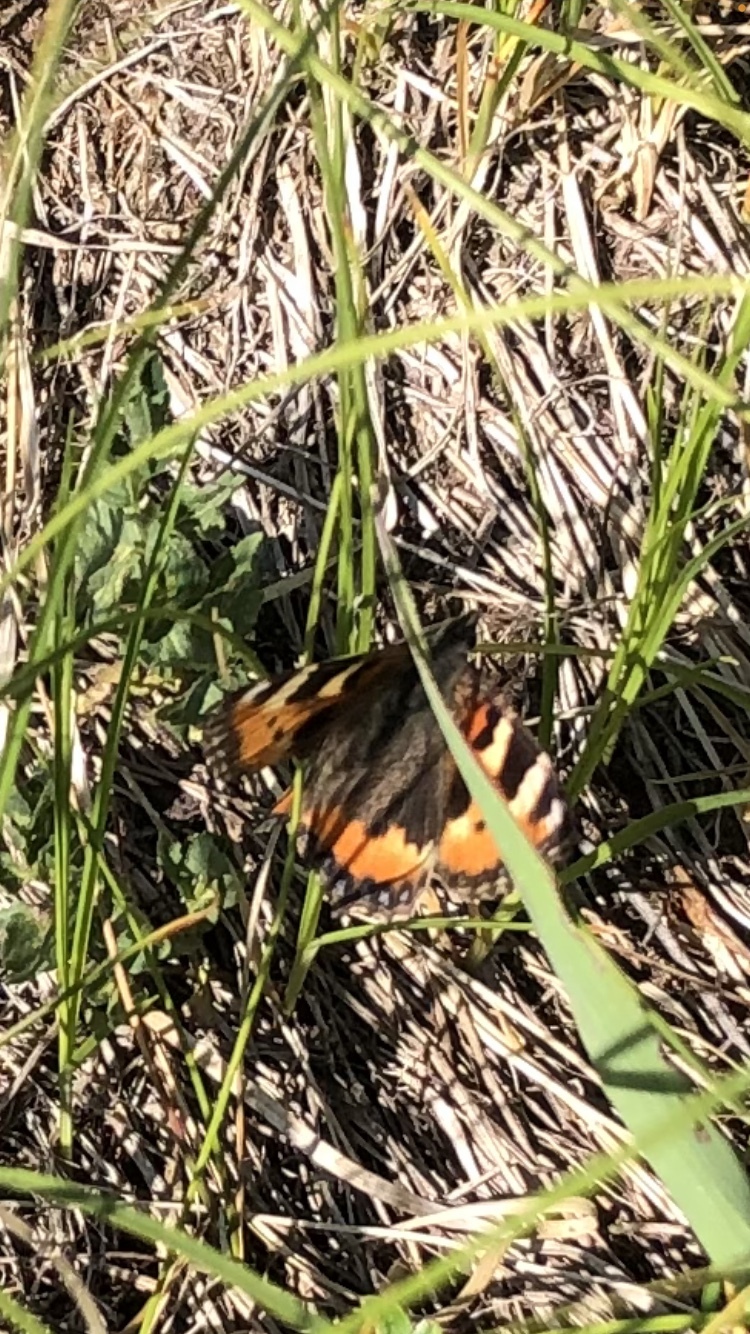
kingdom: Animalia
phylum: Arthropoda
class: Insecta
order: Lepidoptera
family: Nymphalidae
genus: Aglais
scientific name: Aglais urticae
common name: Small tortoiseshell
